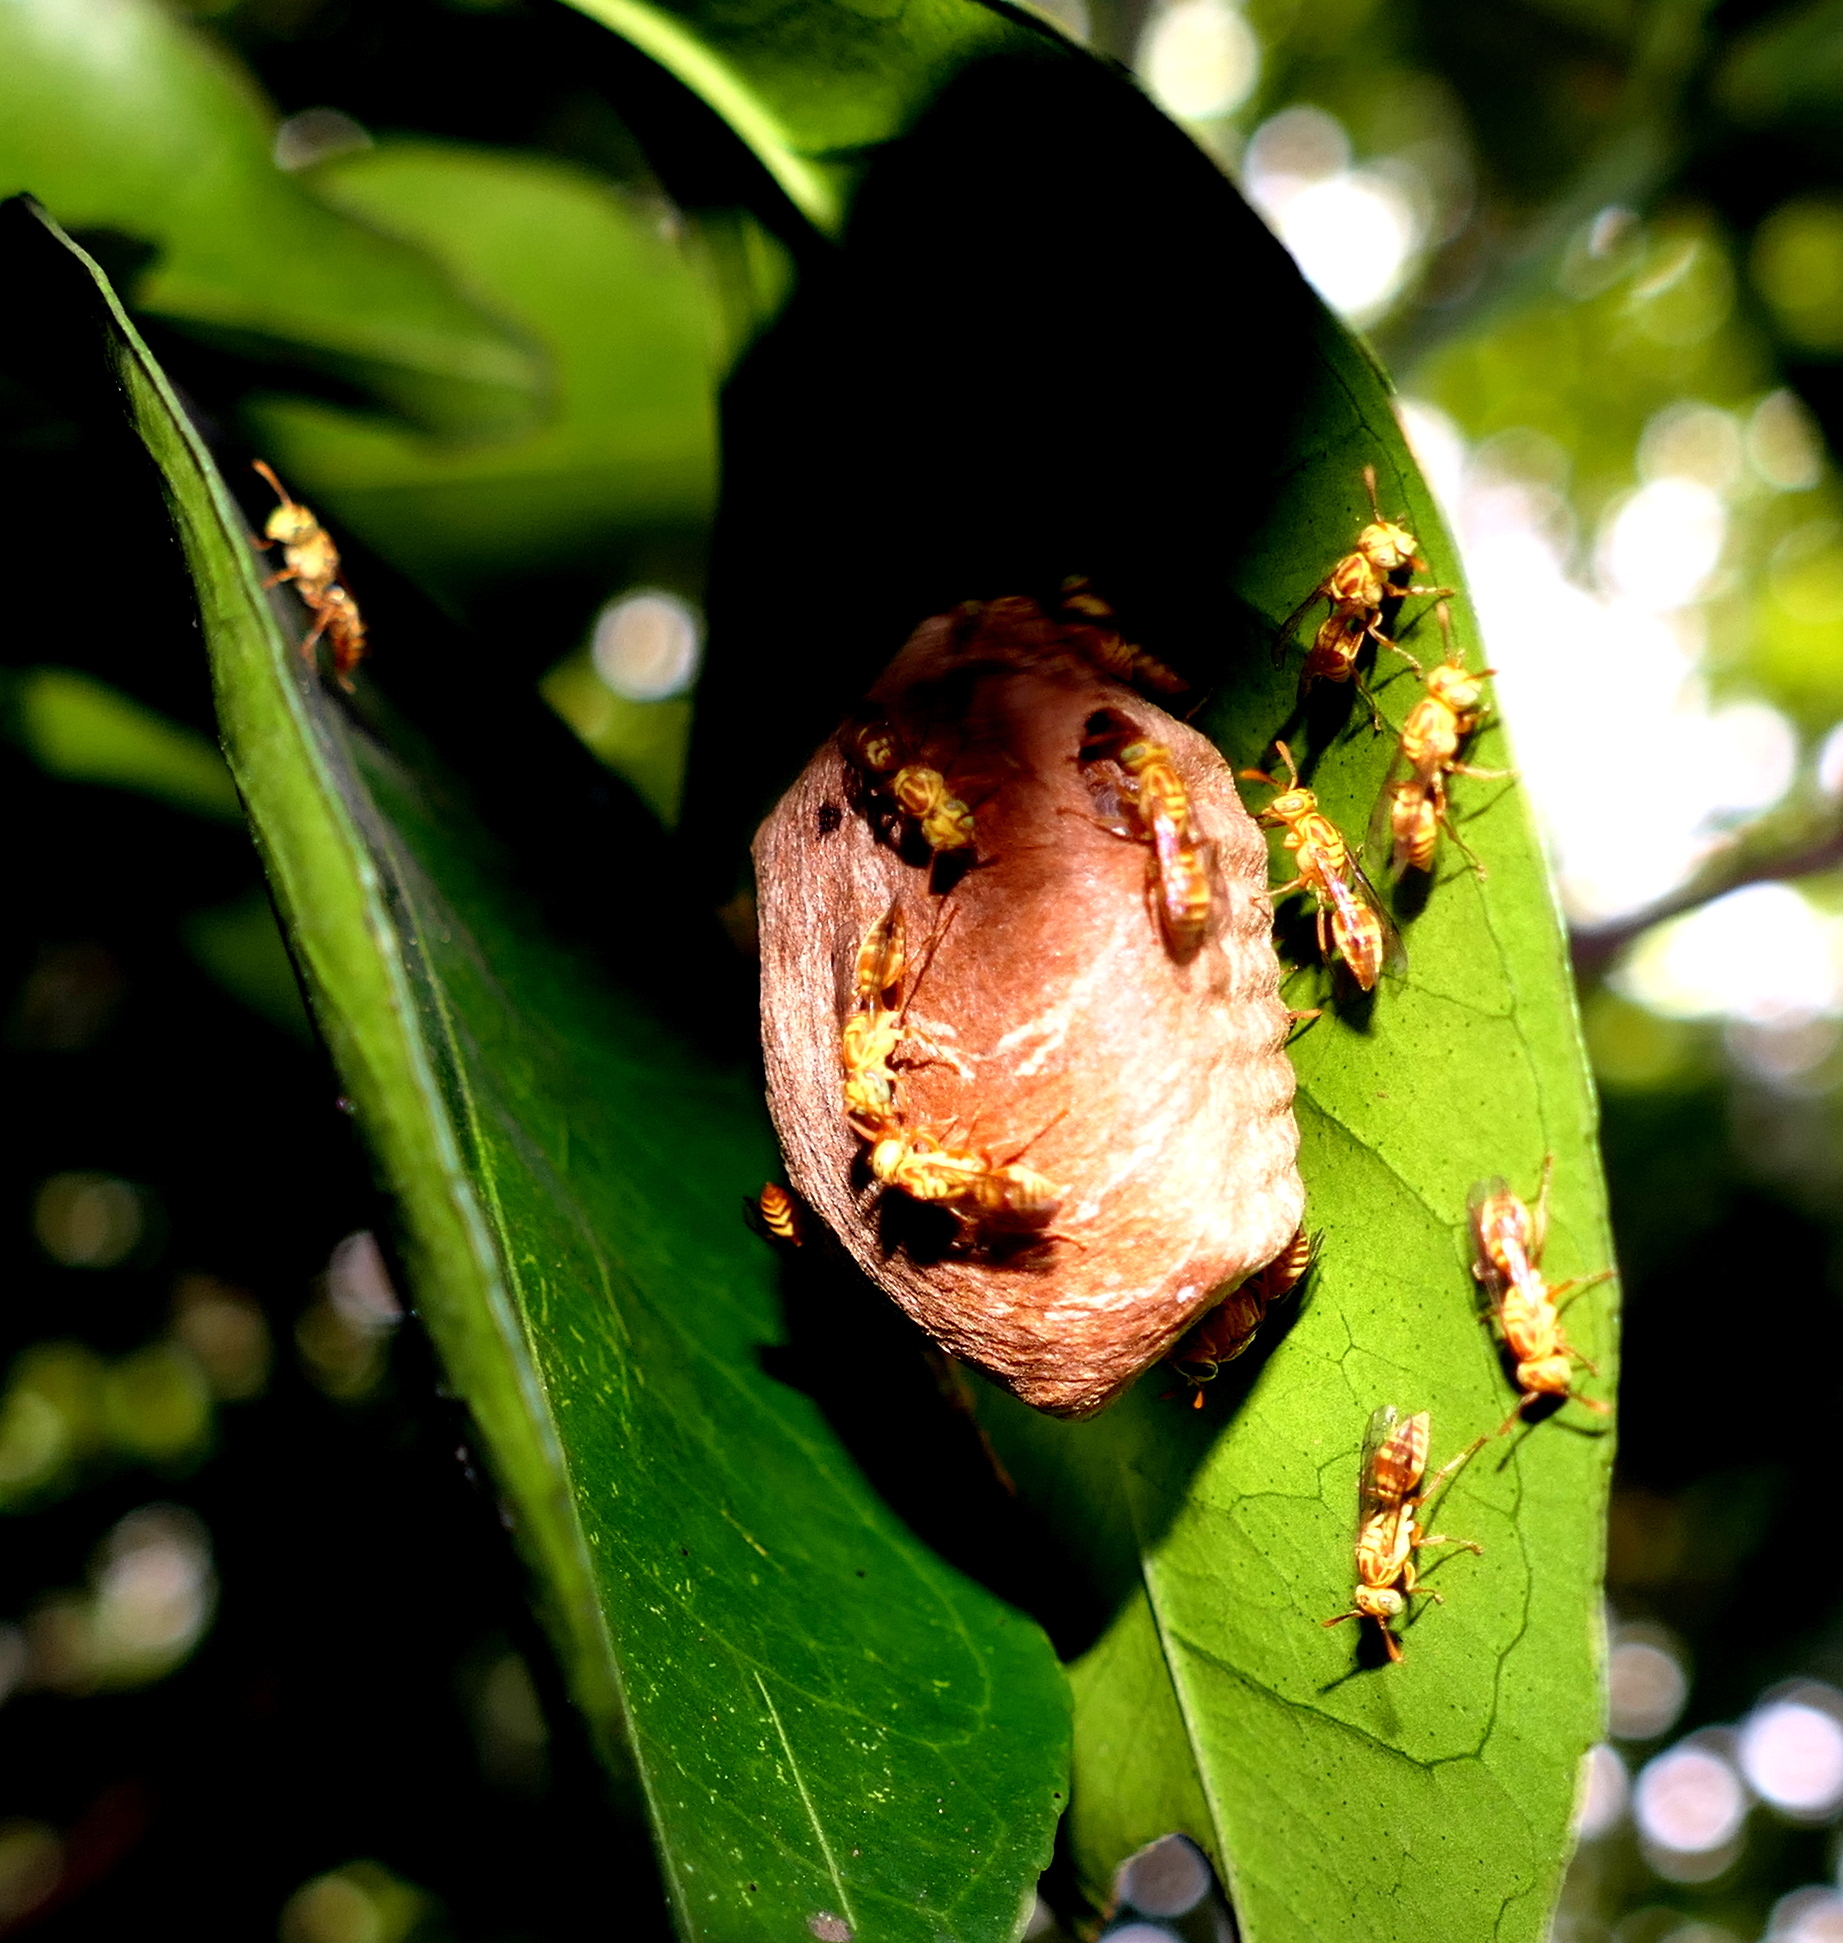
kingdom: Animalia
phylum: Arthropoda
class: Insecta
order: Hymenoptera
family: Vespidae
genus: Protopolybia
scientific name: Protopolybia potiguara
